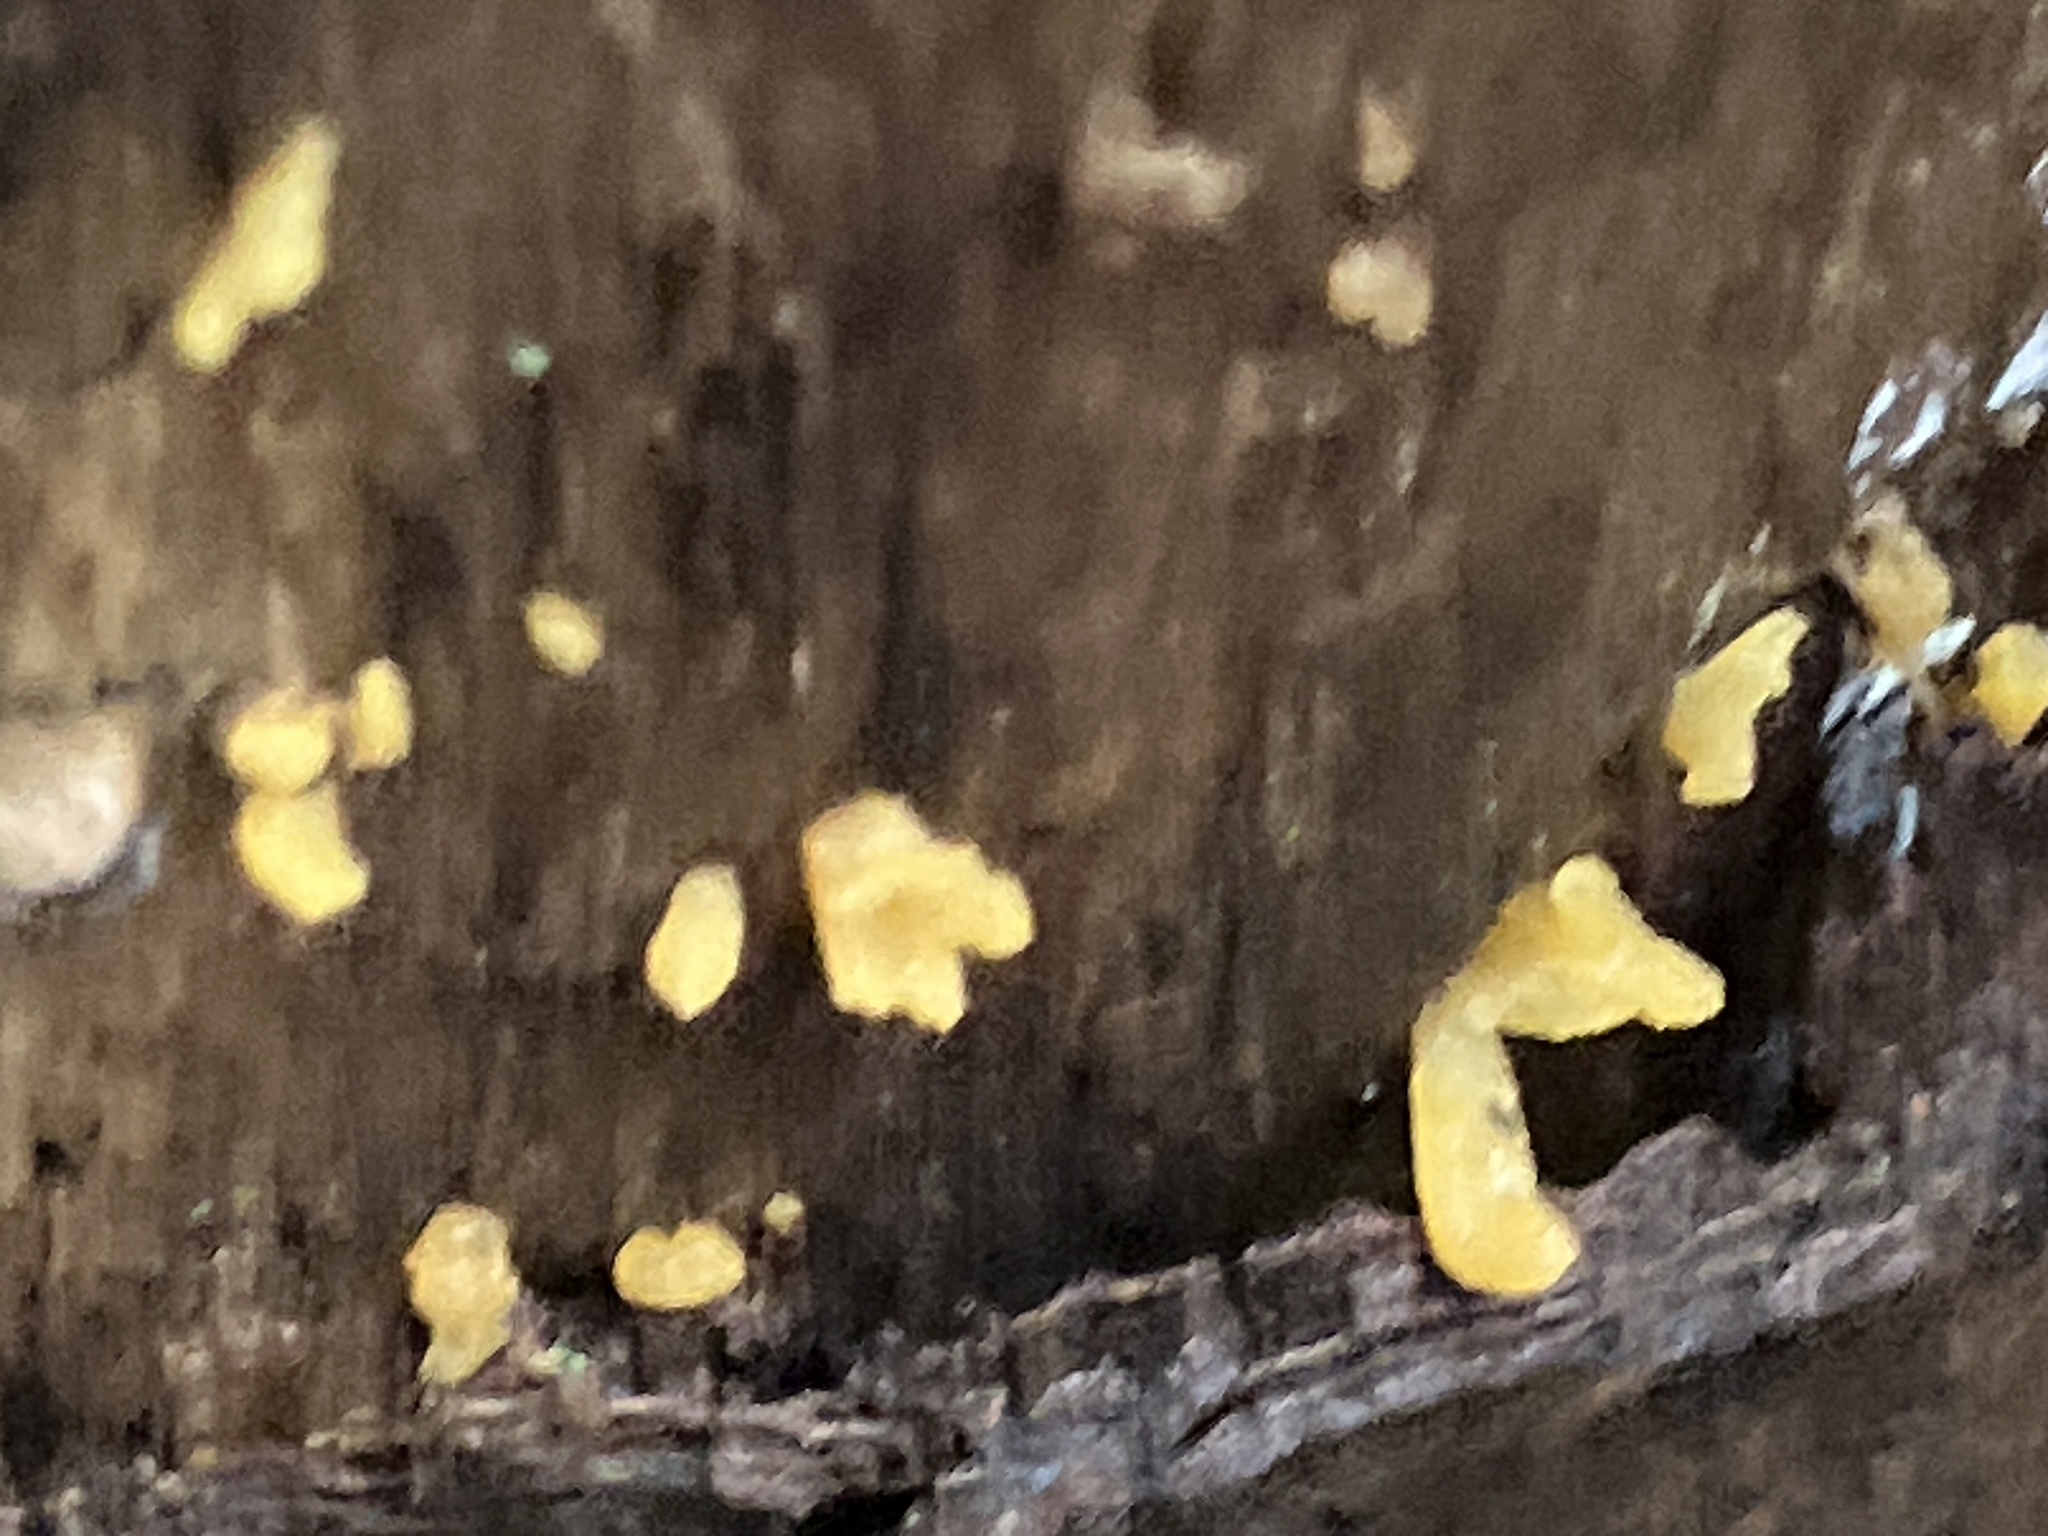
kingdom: Fungi
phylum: Basidiomycota
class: Dacrymycetes
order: Dacrymycetales
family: Dacrymycetaceae
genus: Calocera
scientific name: Calocera cornea
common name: Small stagshorn
